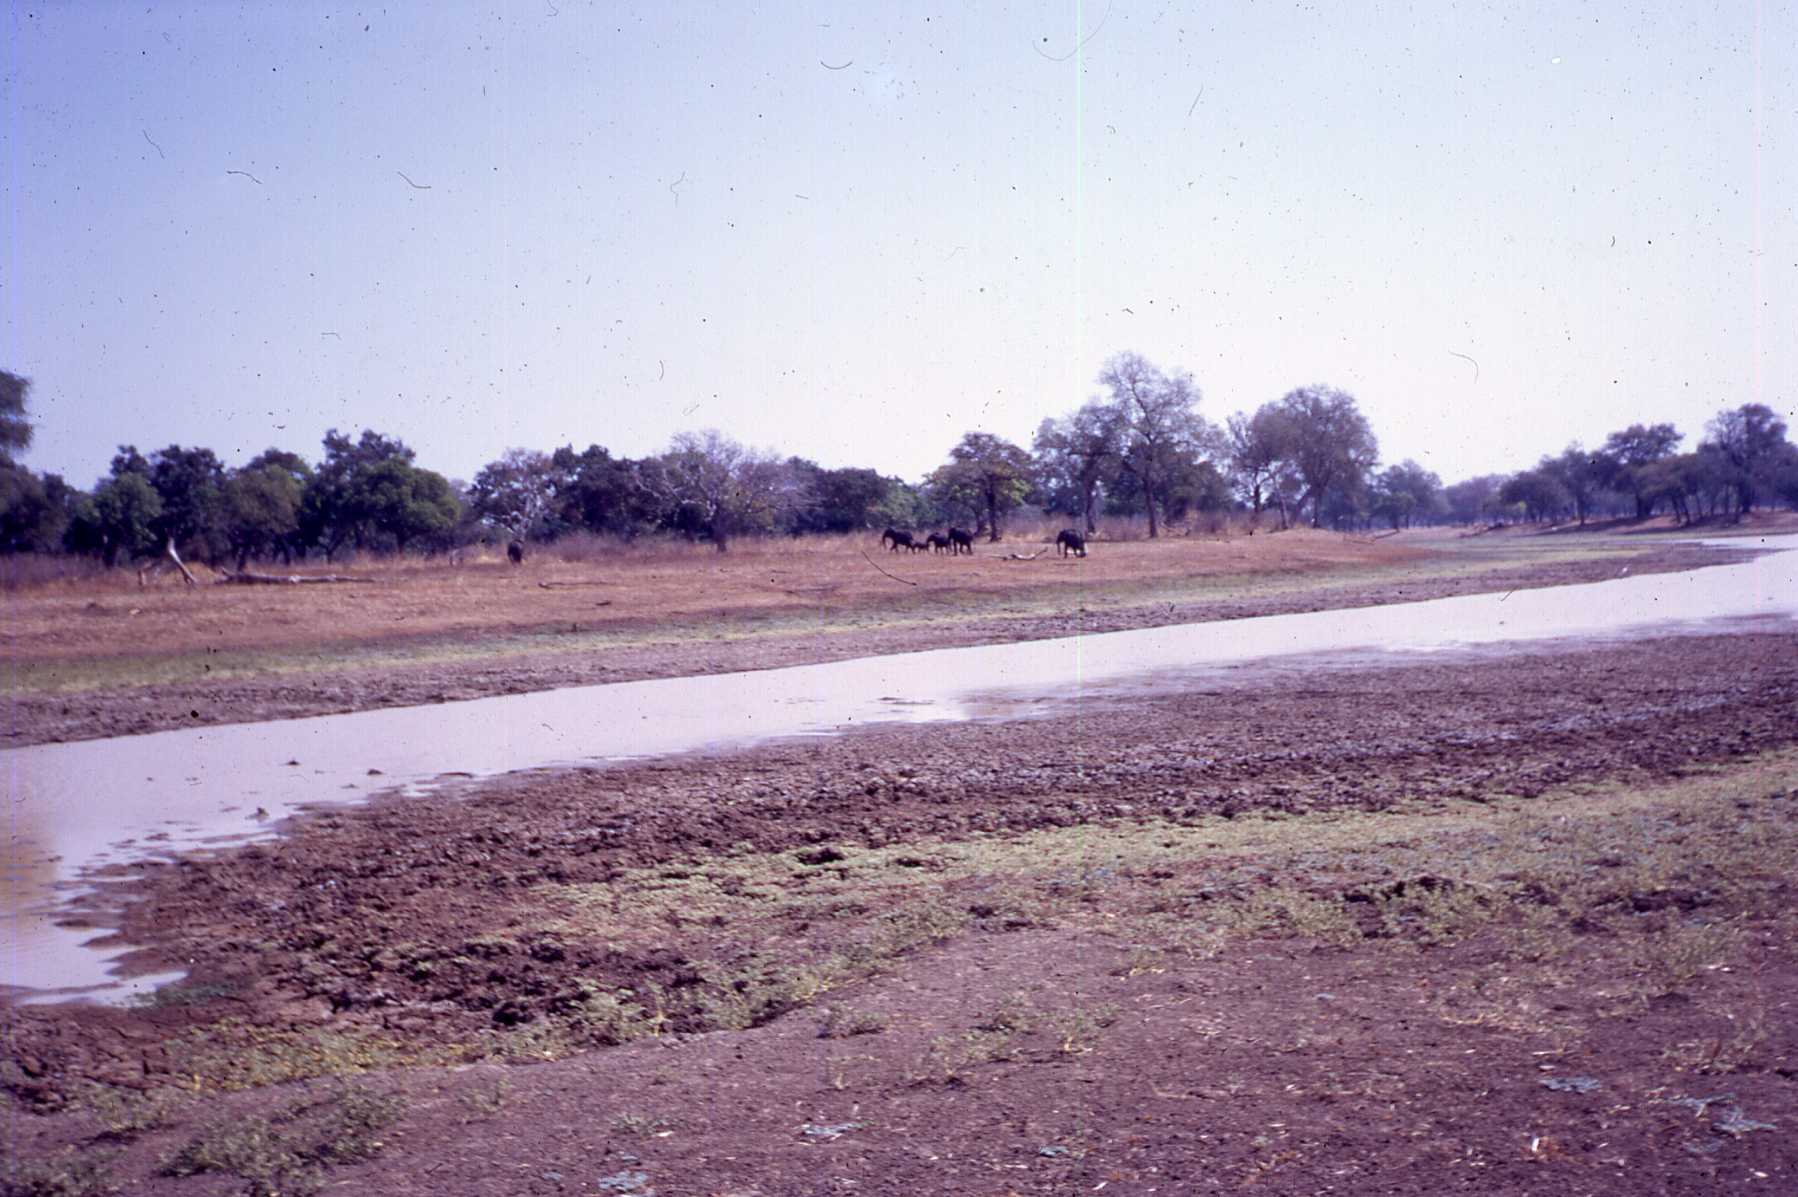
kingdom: Animalia
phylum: Chordata
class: Mammalia
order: Proboscidea
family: Elephantidae
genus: Loxodonta
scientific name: Loxodonta africana
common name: African elephant
